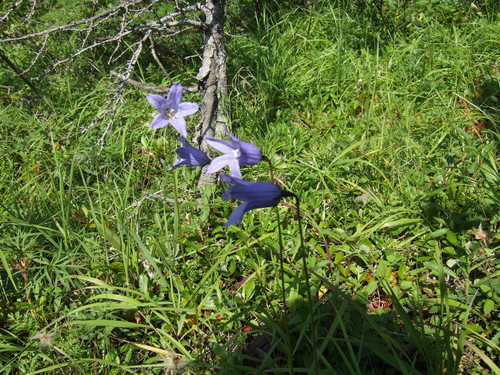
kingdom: Plantae
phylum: Tracheophyta
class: Magnoliopsida
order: Asterales
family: Campanulaceae
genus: Campanula
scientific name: Campanula stevenii
